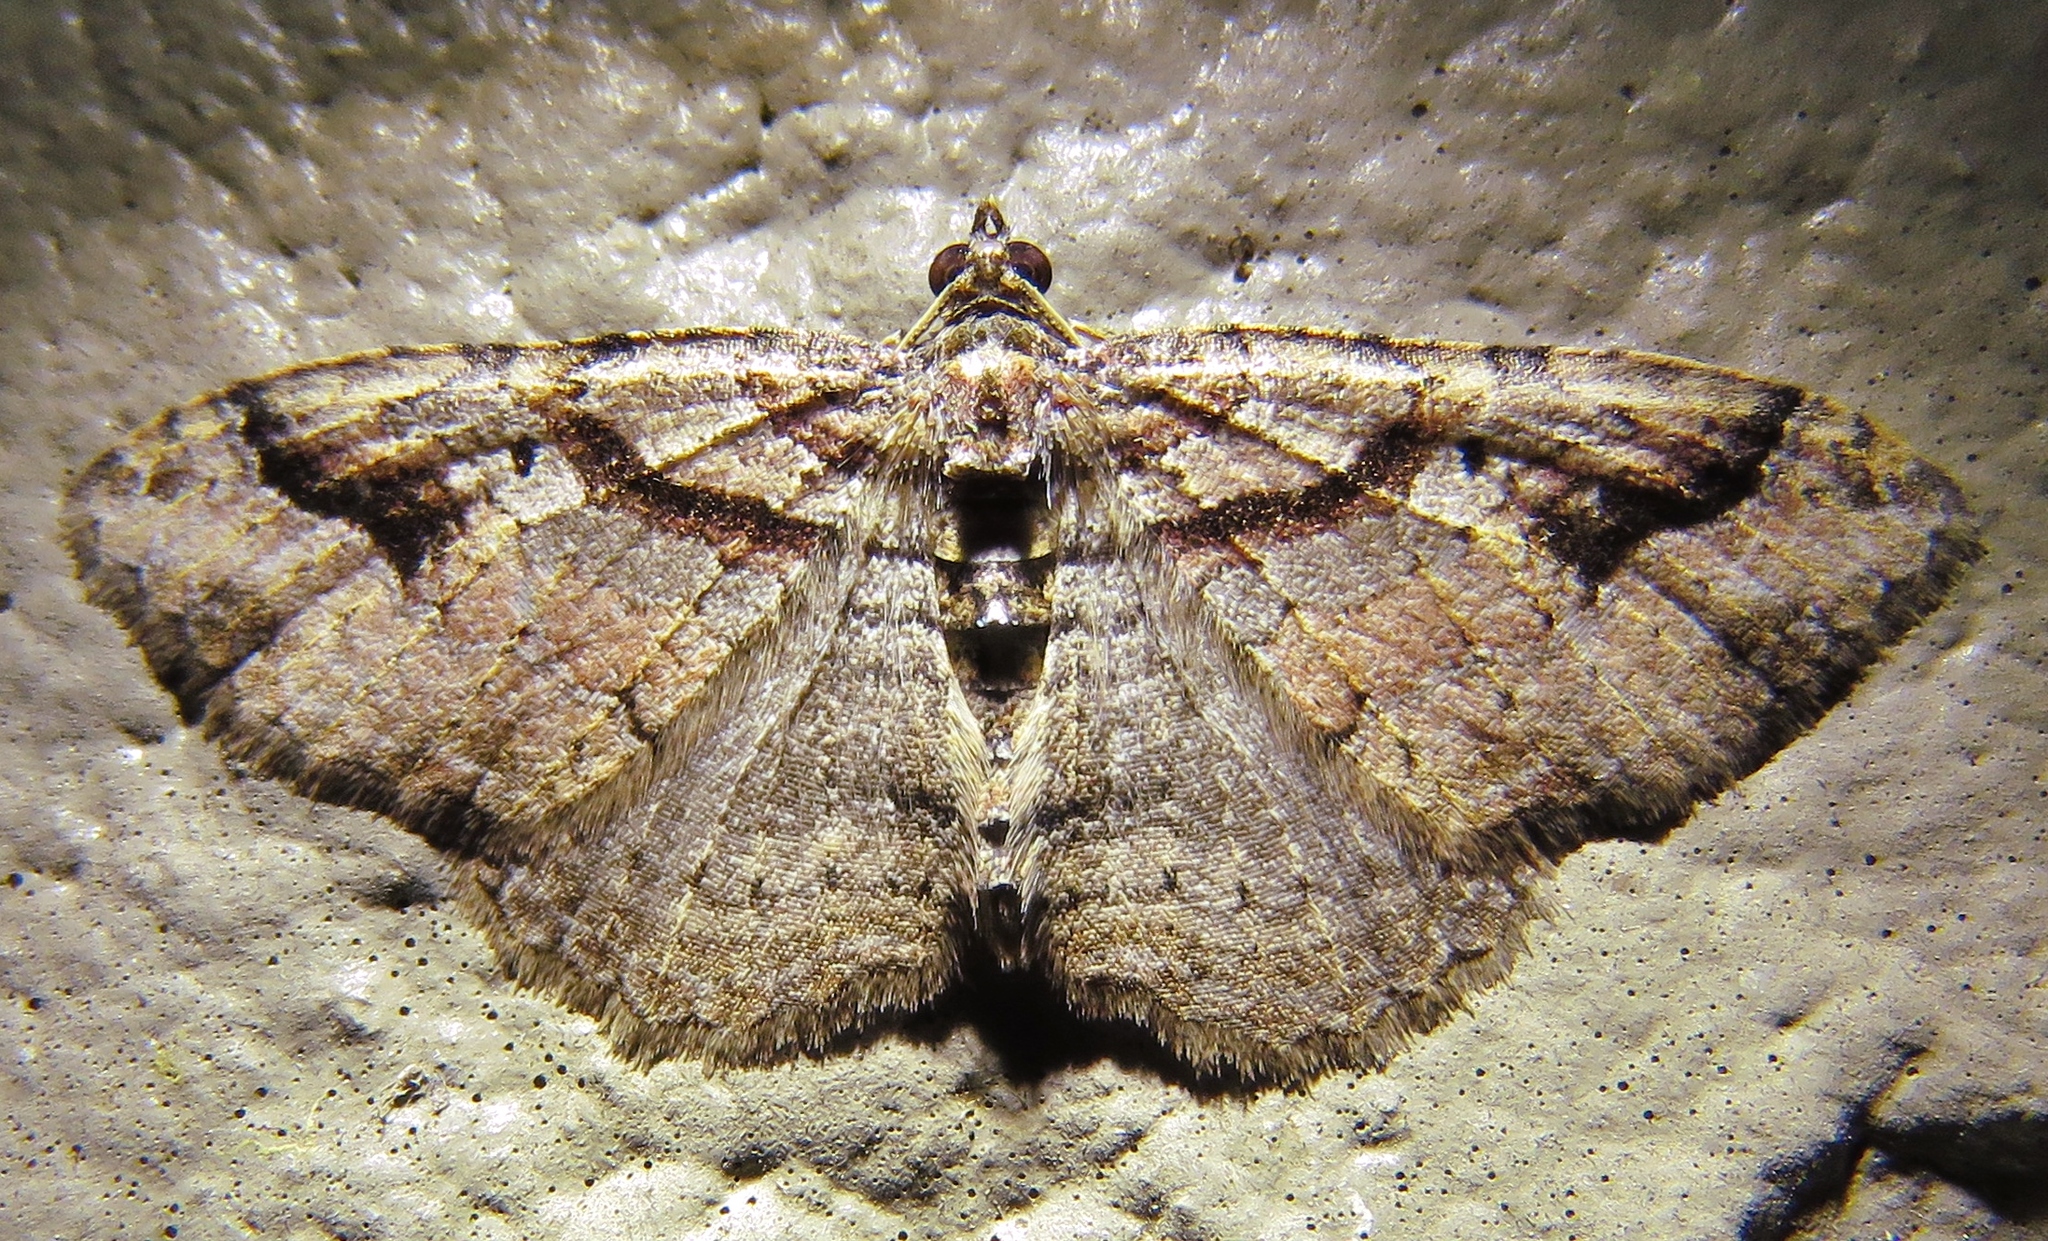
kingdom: Animalia
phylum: Arthropoda
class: Insecta
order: Lepidoptera
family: Geometridae
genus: Costaconvexa
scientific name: Costaconvexa centrostrigaria
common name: Bent-line carpet
